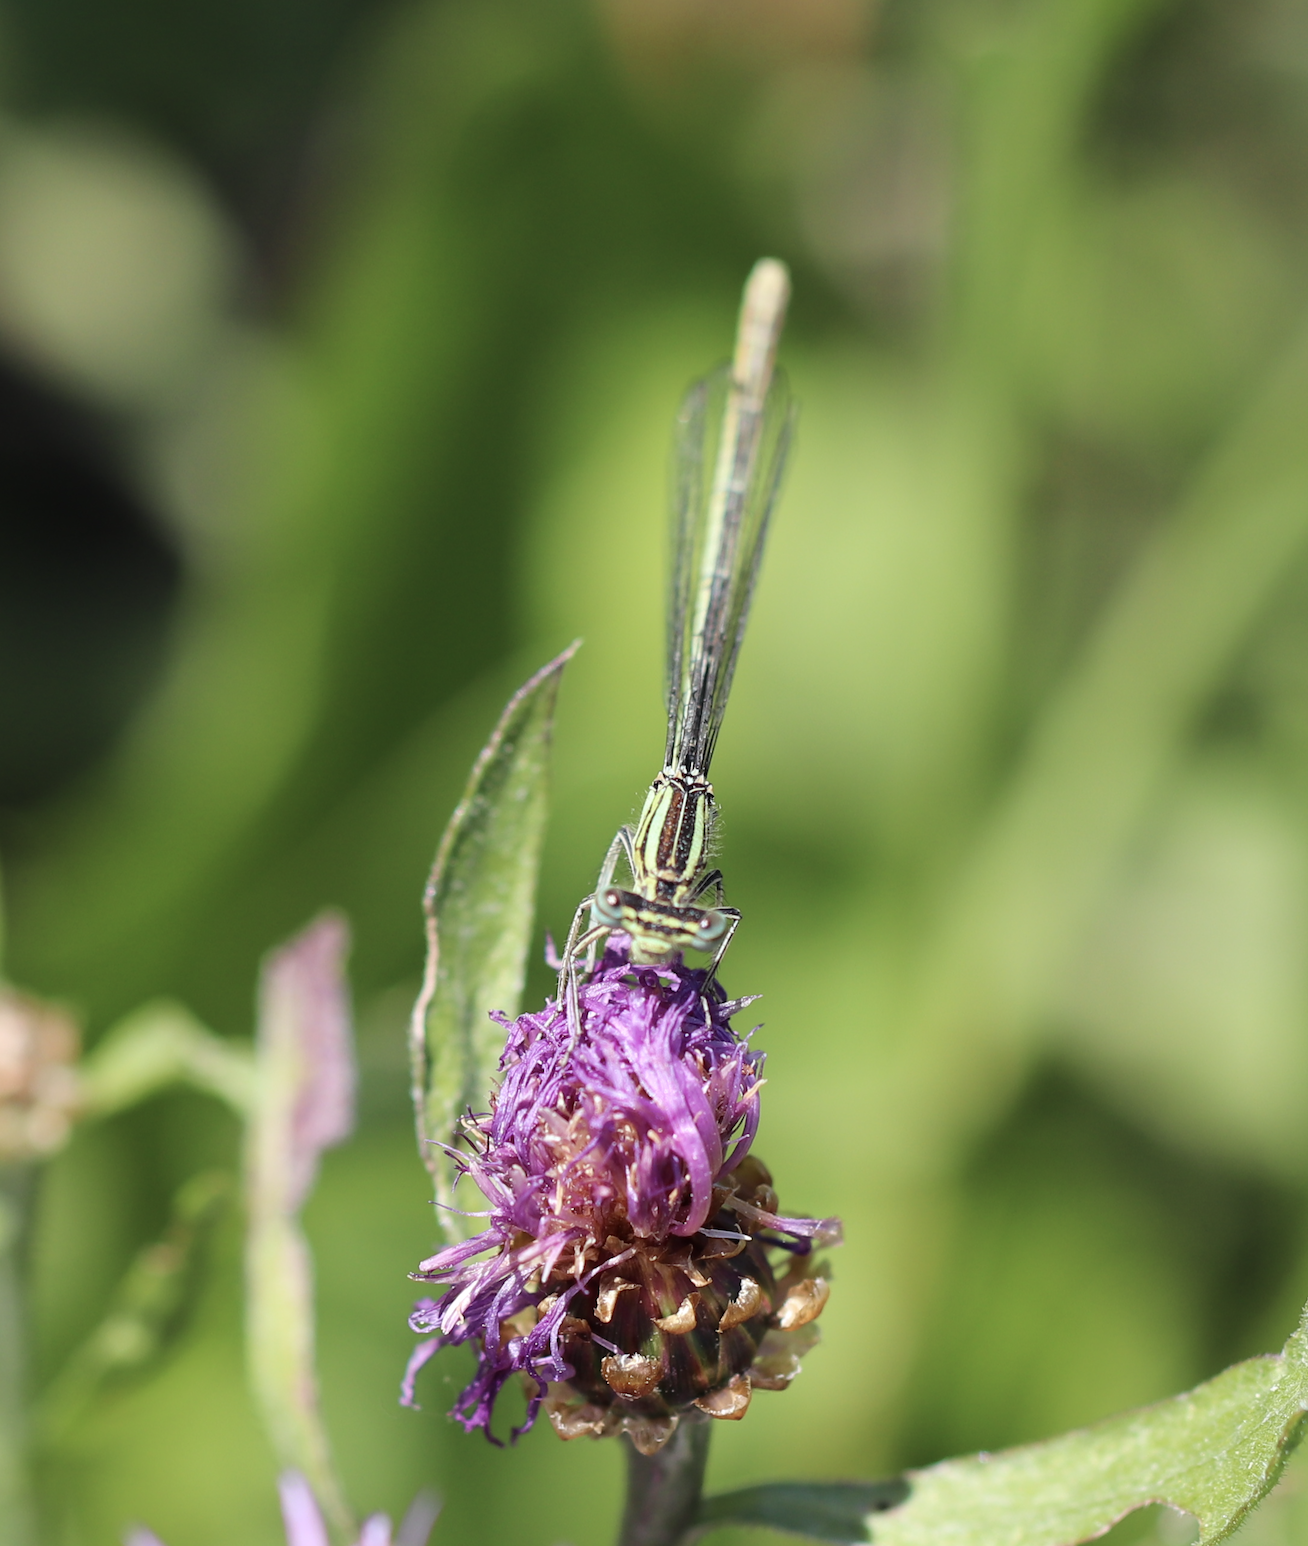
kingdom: Animalia
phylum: Arthropoda
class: Insecta
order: Odonata
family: Platycnemididae
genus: Platycnemis
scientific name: Platycnemis pennipes
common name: White-legged damselfly
